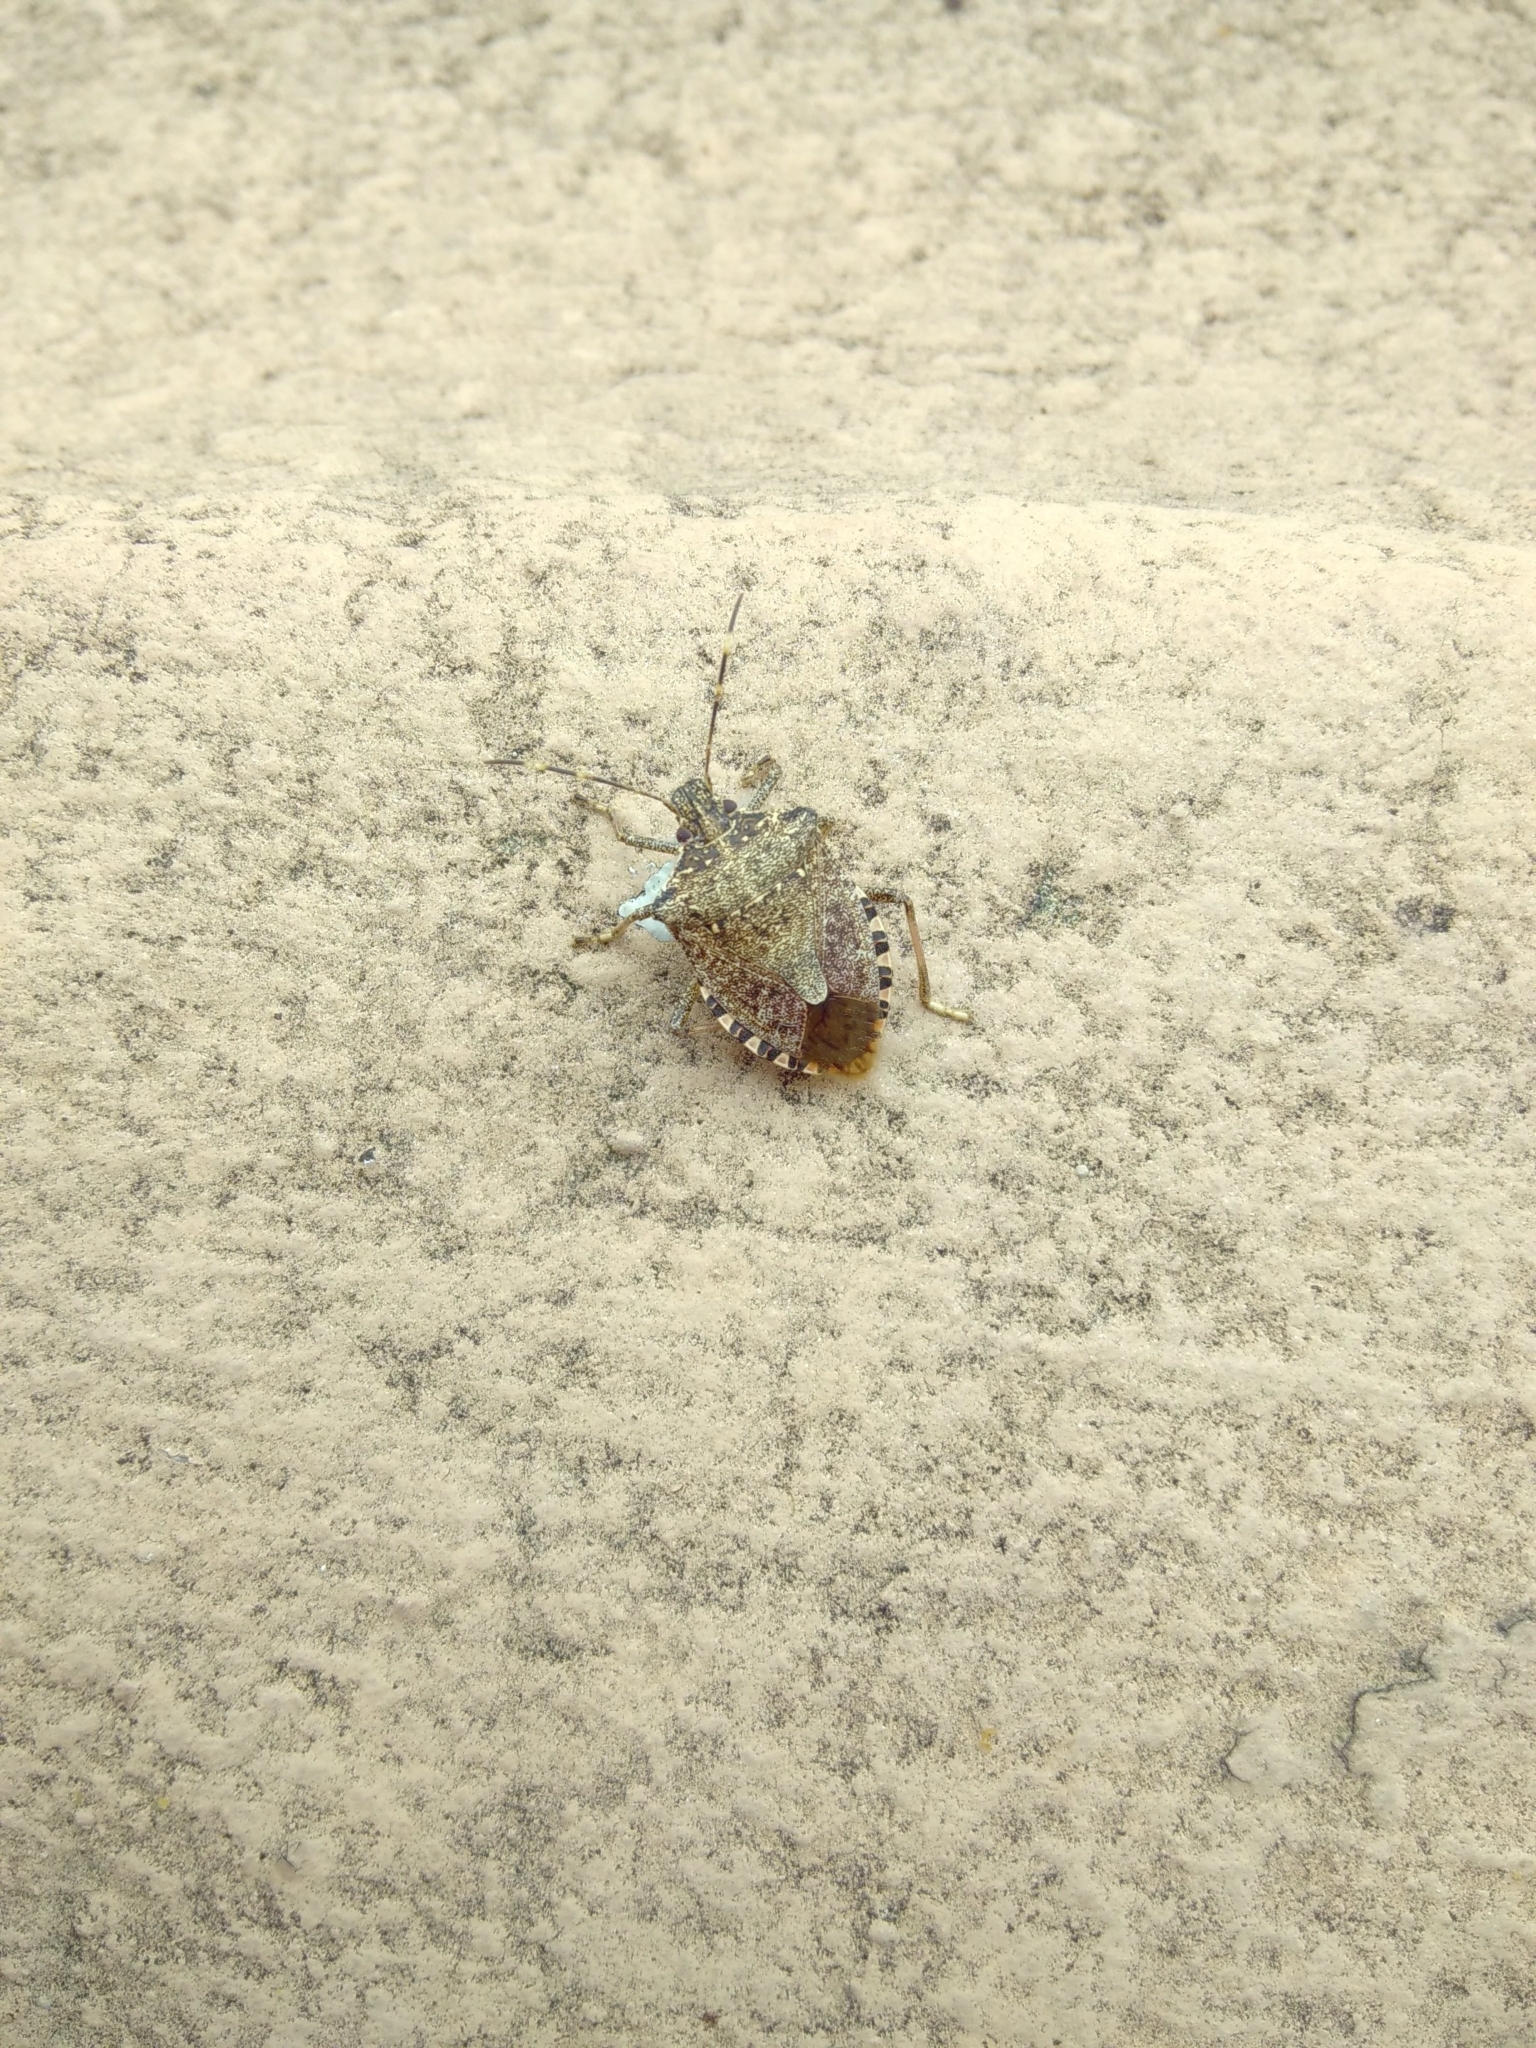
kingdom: Animalia
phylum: Arthropoda
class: Insecta
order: Hemiptera
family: Pentatomidae
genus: Halyomorpha
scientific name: Halyomorpha halys
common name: Brown marmorated stink bug
